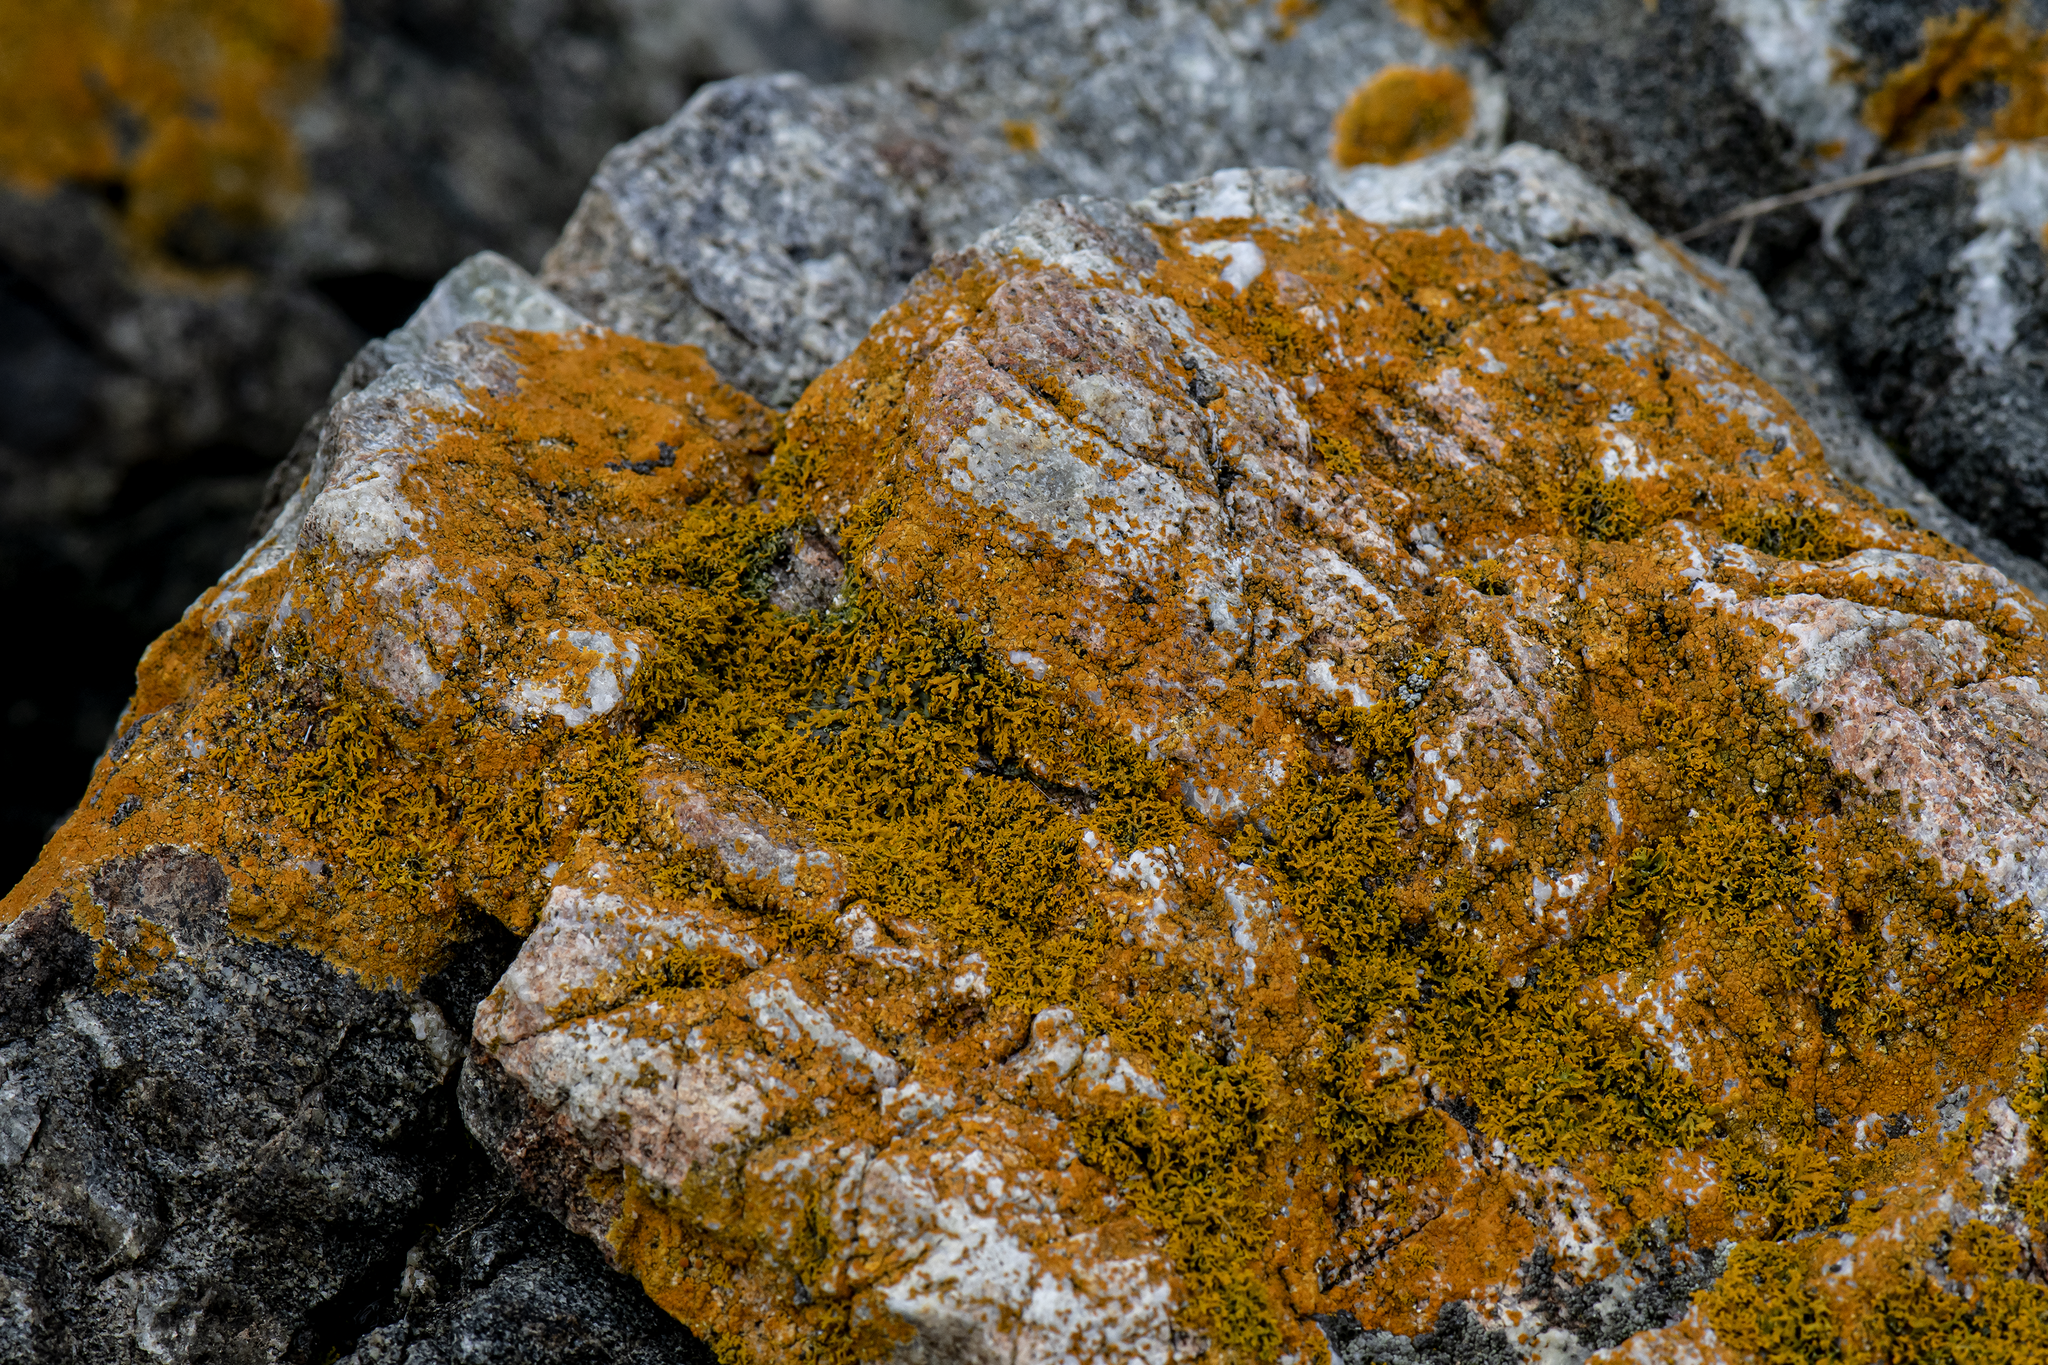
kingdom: Fungi
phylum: Ascomycota
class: Lecanoromycetes
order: Teloschistales
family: Teloschistaceae
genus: Polycauliona
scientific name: Polycauliona candelaria
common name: Shrubby sunburst lichen
